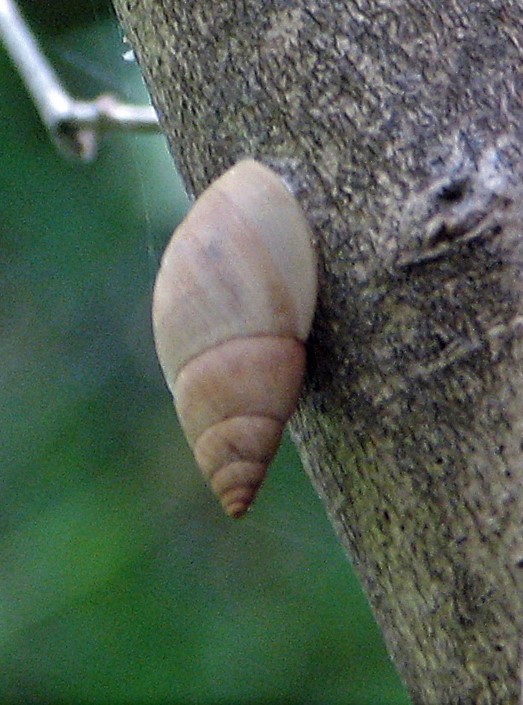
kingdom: Animalia
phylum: Mollusca
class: Gastropoda
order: Stylommatophora
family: Bulimulidae
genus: Bulimulus
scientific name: Bulimulus bonariensis
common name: Snail
